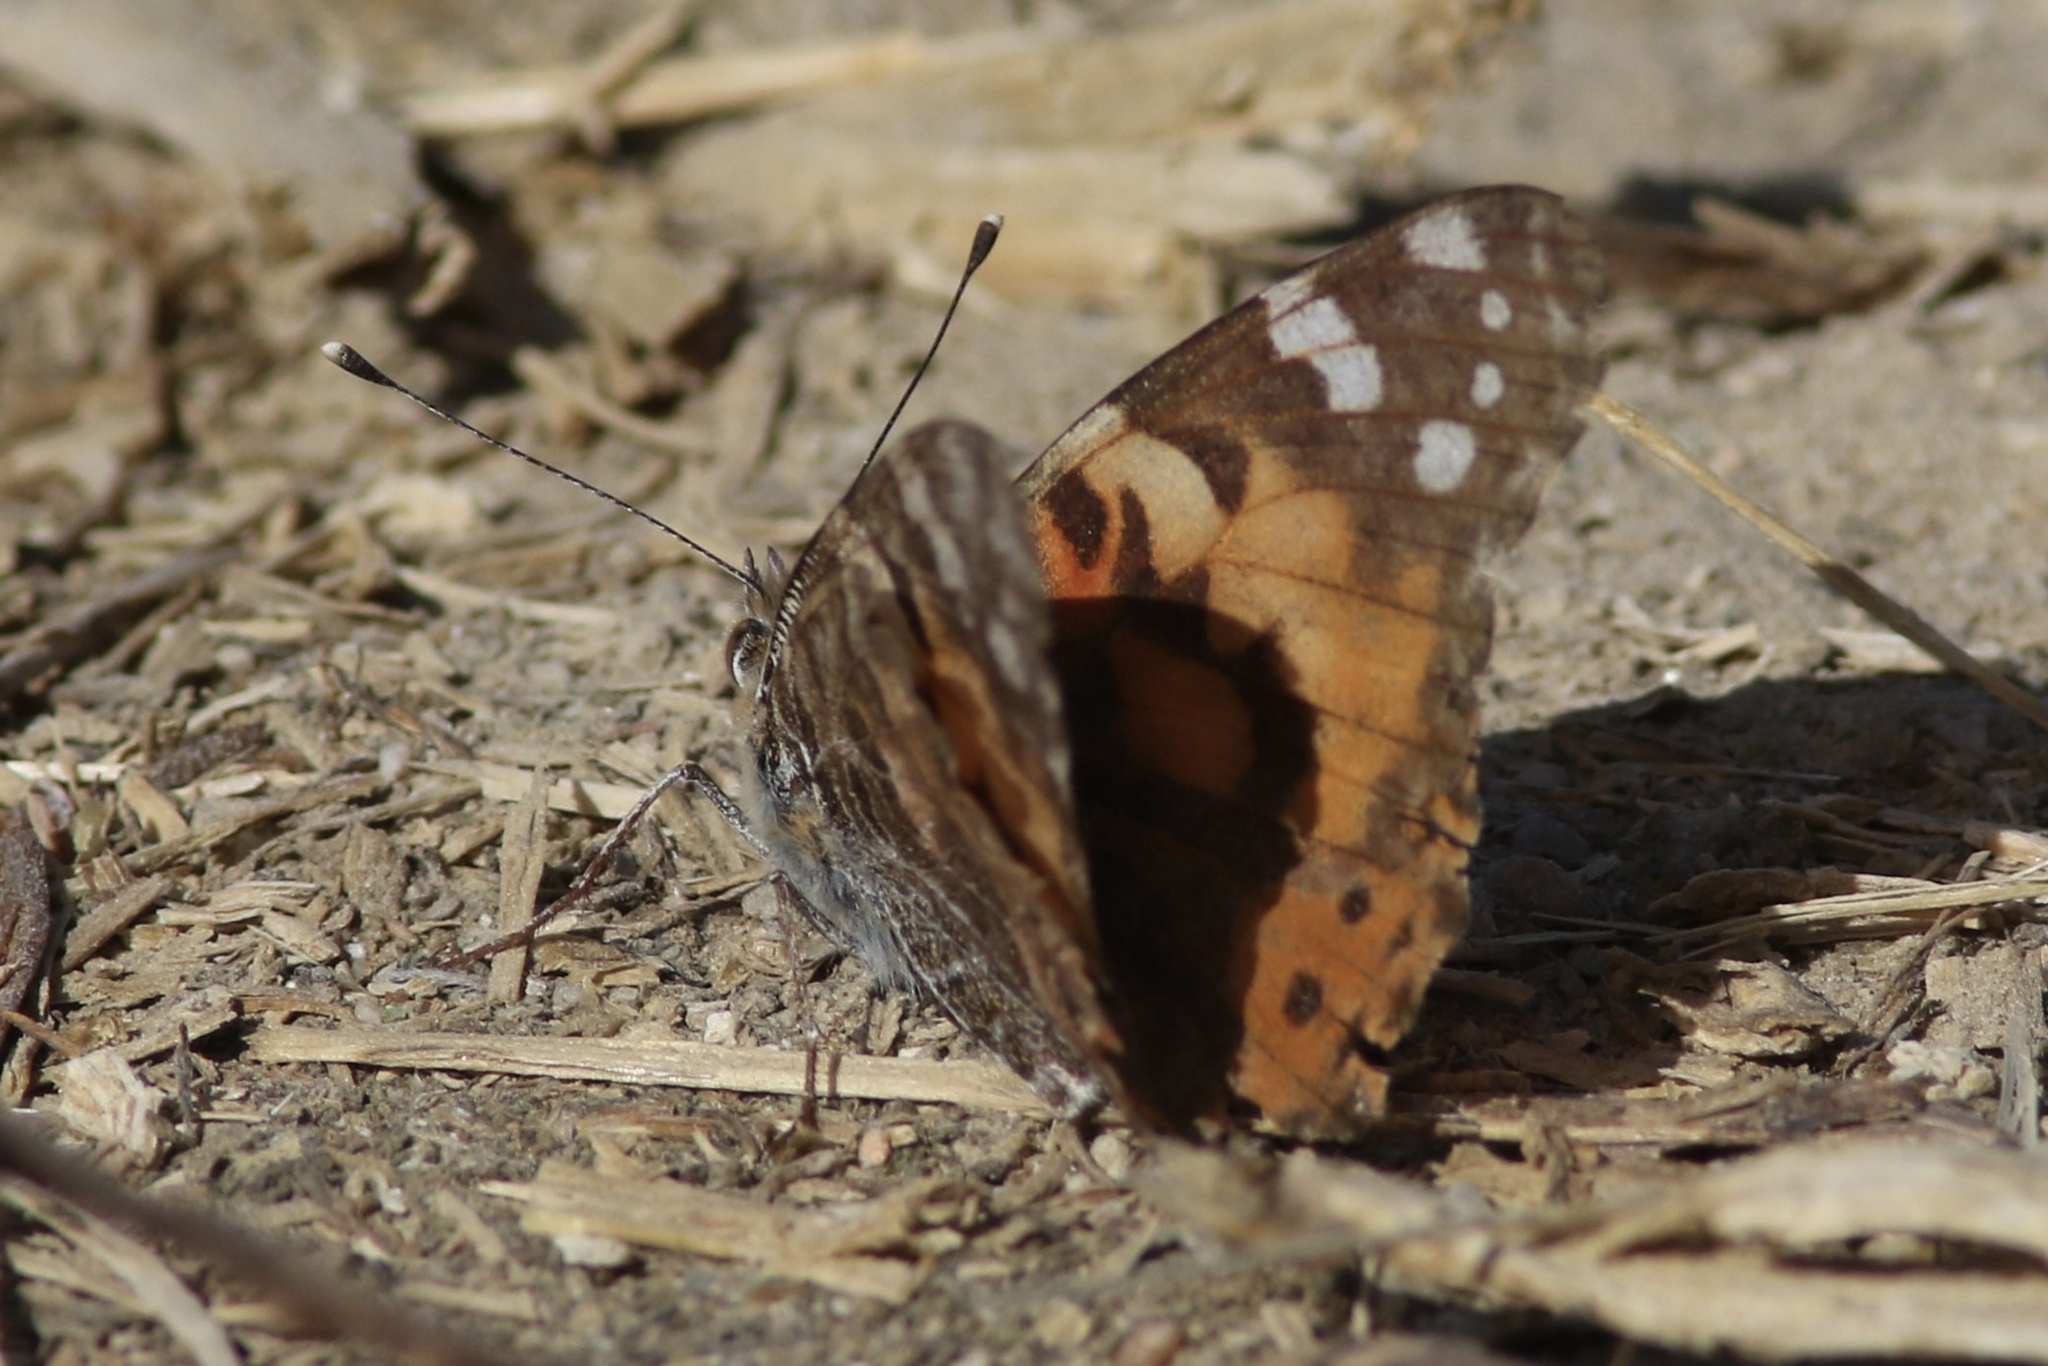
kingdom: Animalia
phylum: Arthropoda
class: Insecta
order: Lepidoptera
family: Nymphalidae
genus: Vanessa
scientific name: Vanessa cardui
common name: Painted lady
